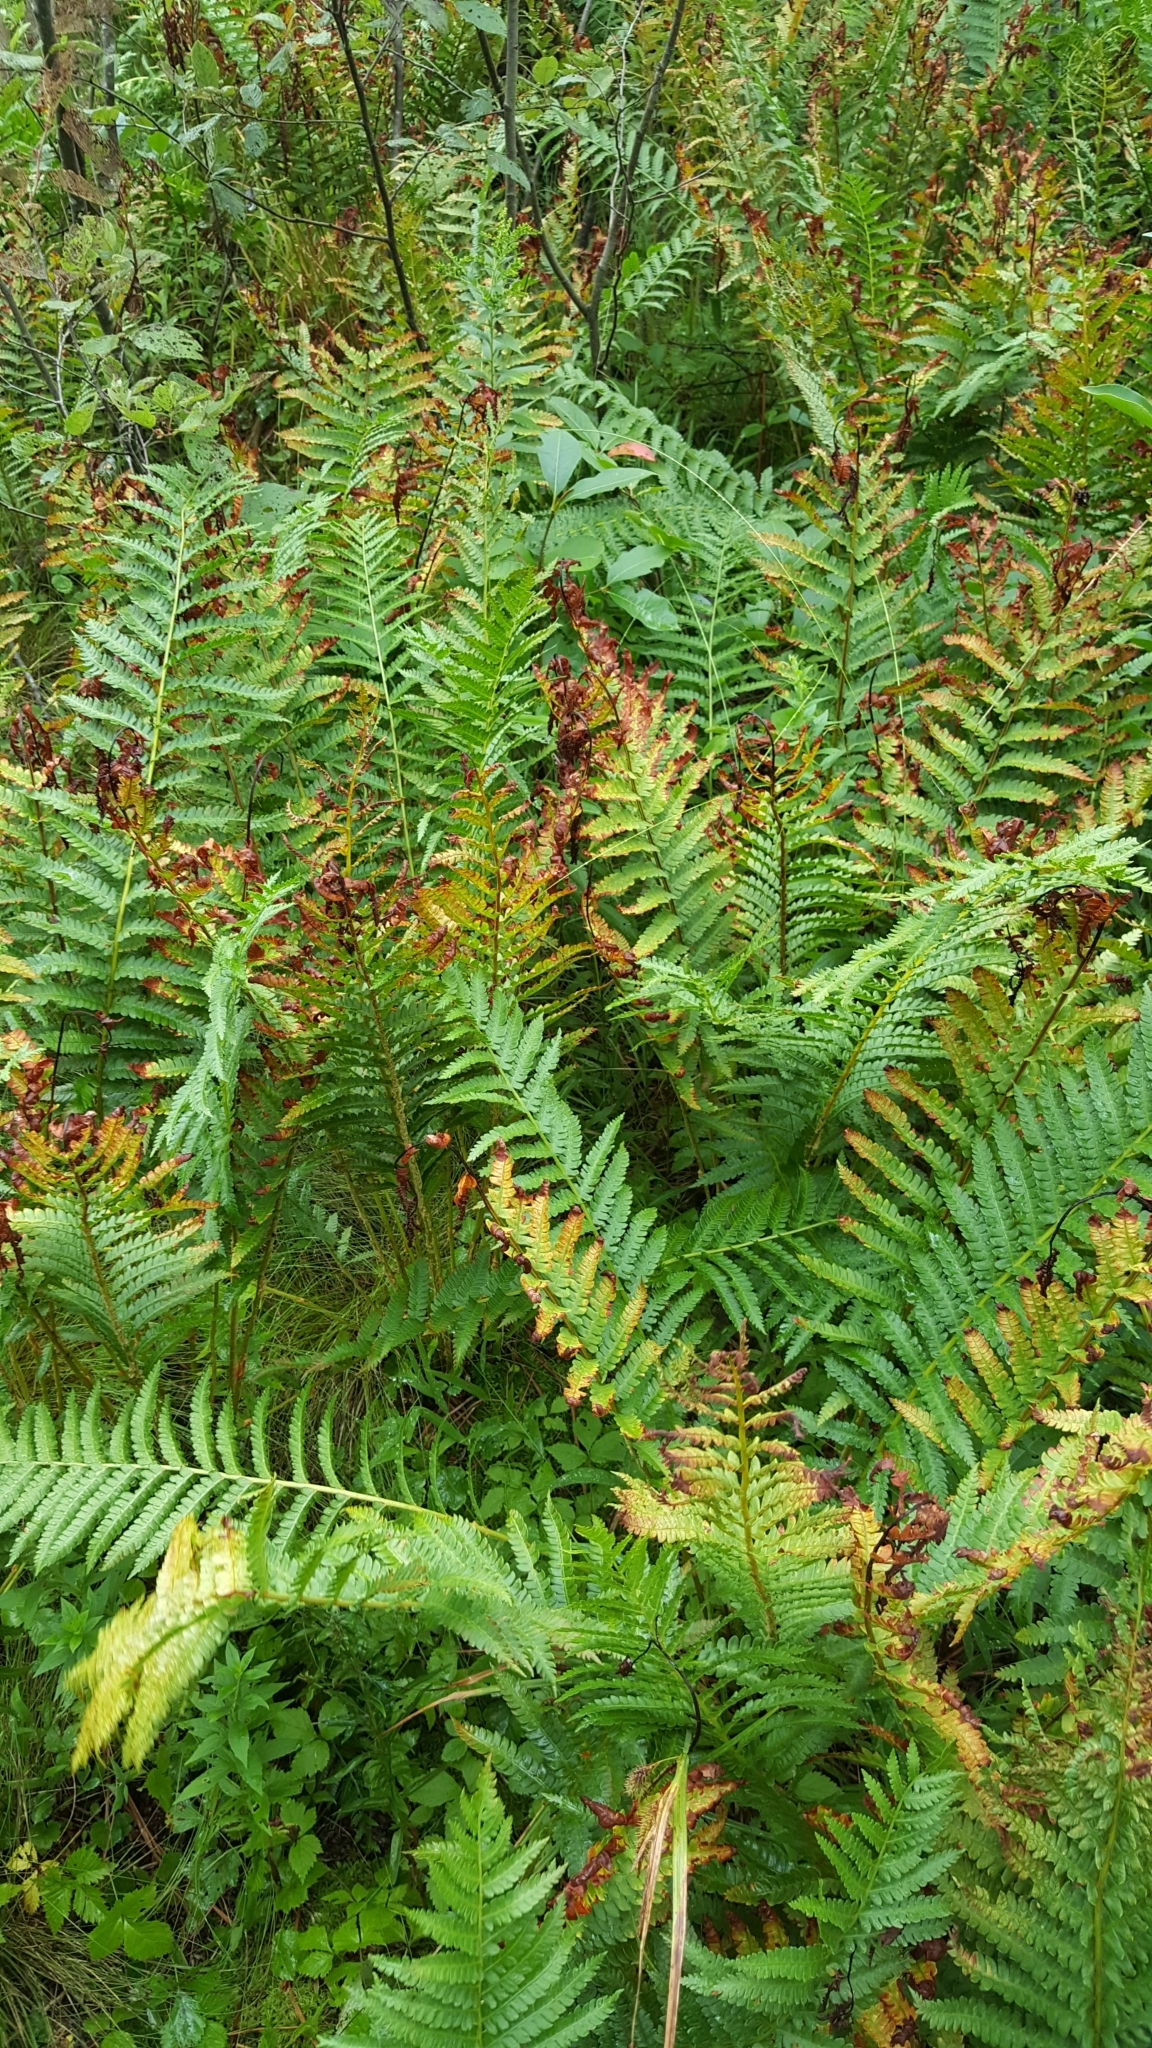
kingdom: Plantae
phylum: Tracheophyta
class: Polypodiopsida
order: Osmundales
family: Osmundaceae
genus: Osmundastrum
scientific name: Osmundastrum cinnamomeum
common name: Cinnamon fern
